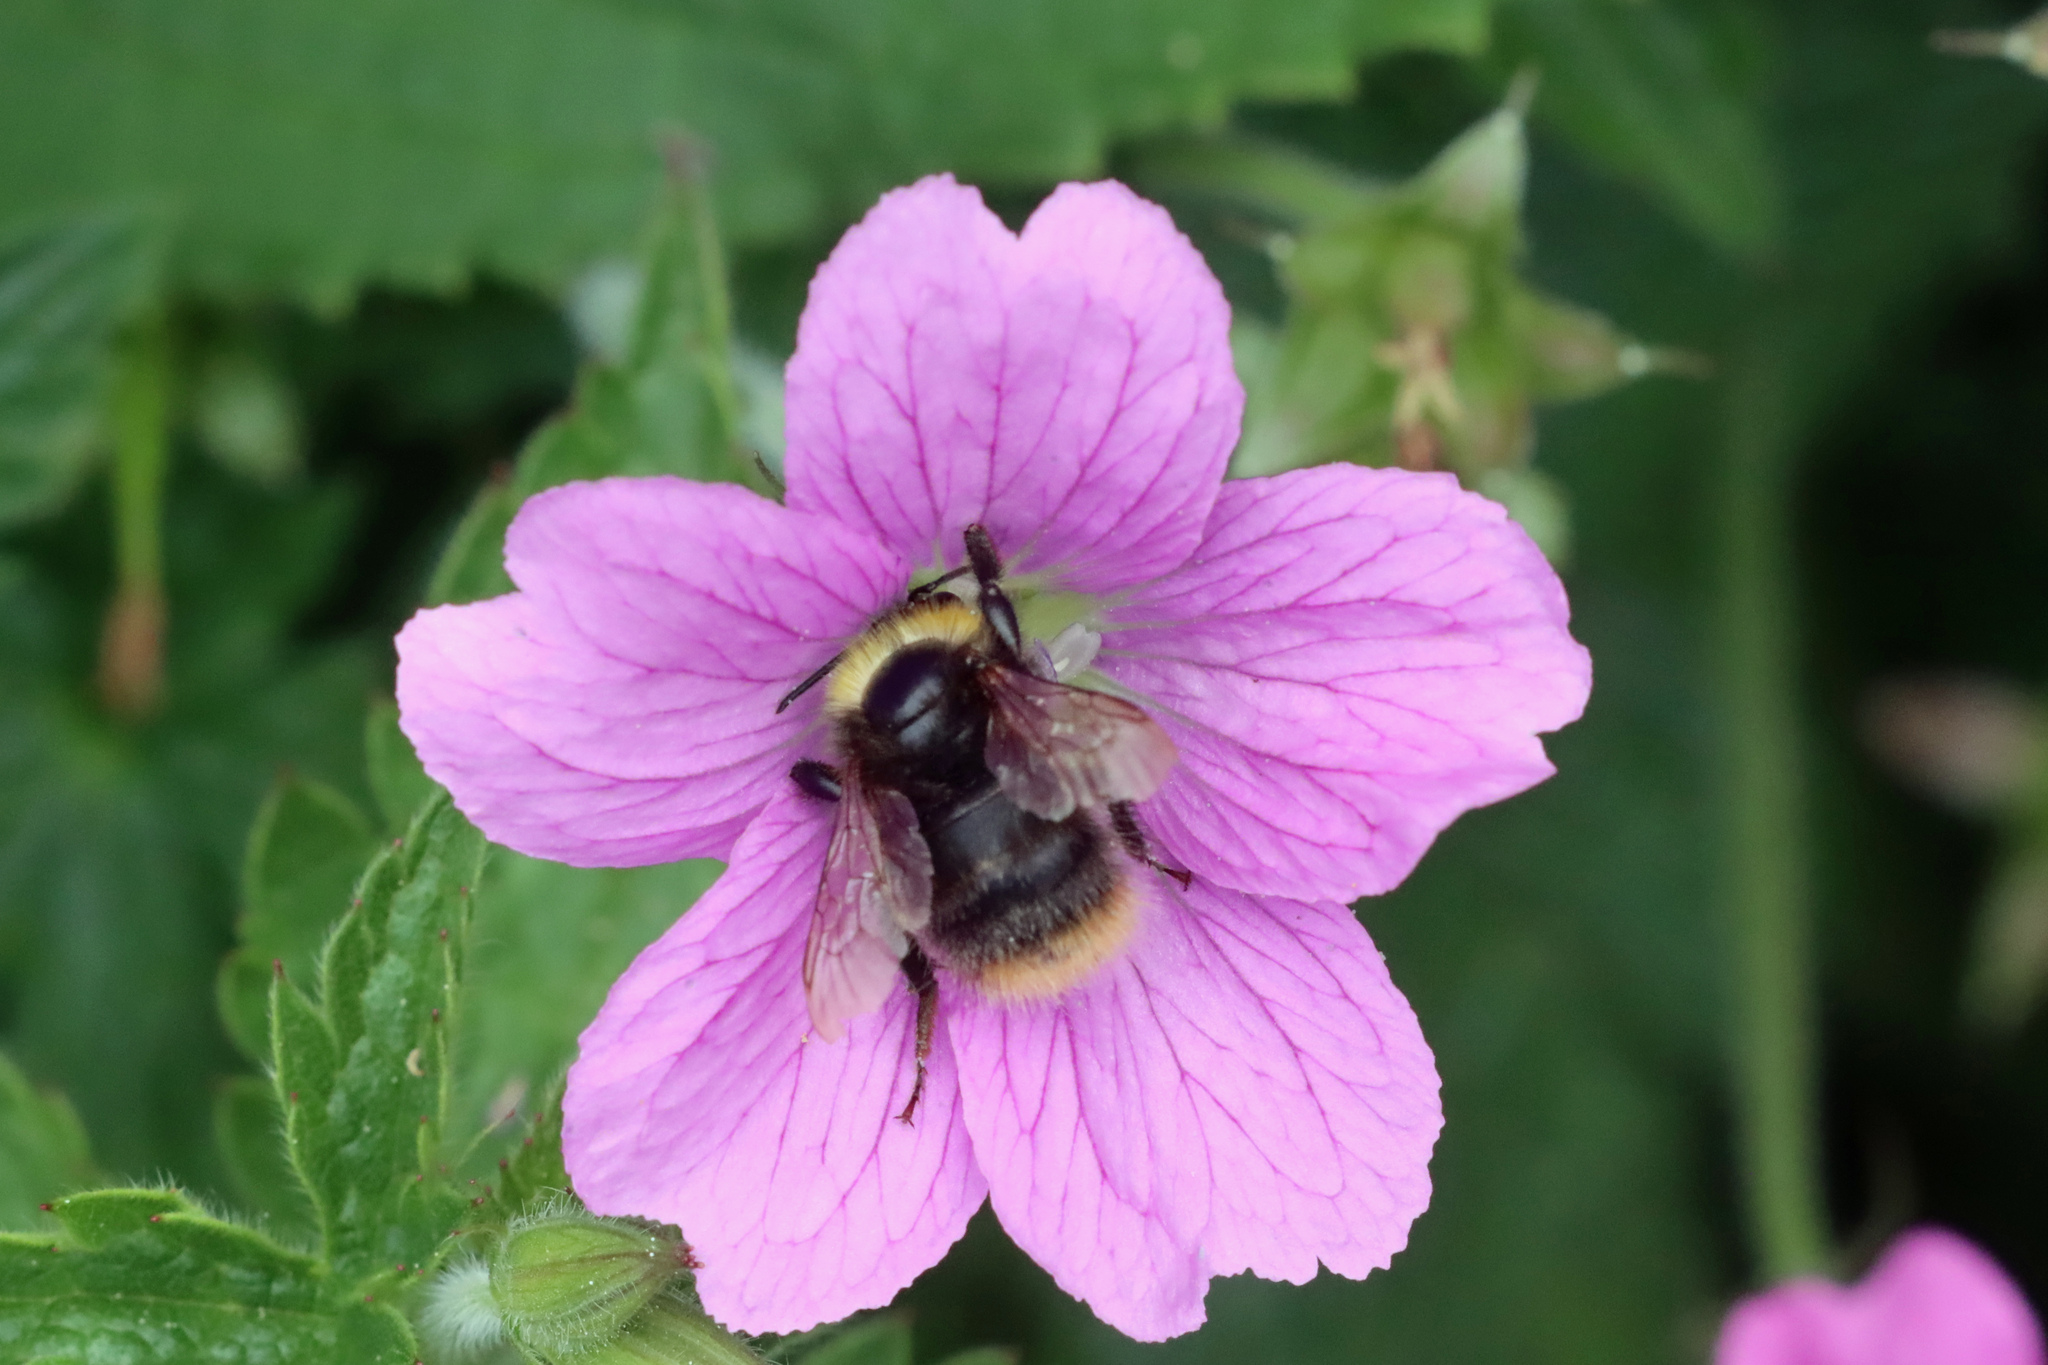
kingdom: Animalia
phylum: Arthropoda
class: Insecta
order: Hymenoptera
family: Apidae
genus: Bombus
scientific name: Bombus pratorum
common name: Early humble-bee
